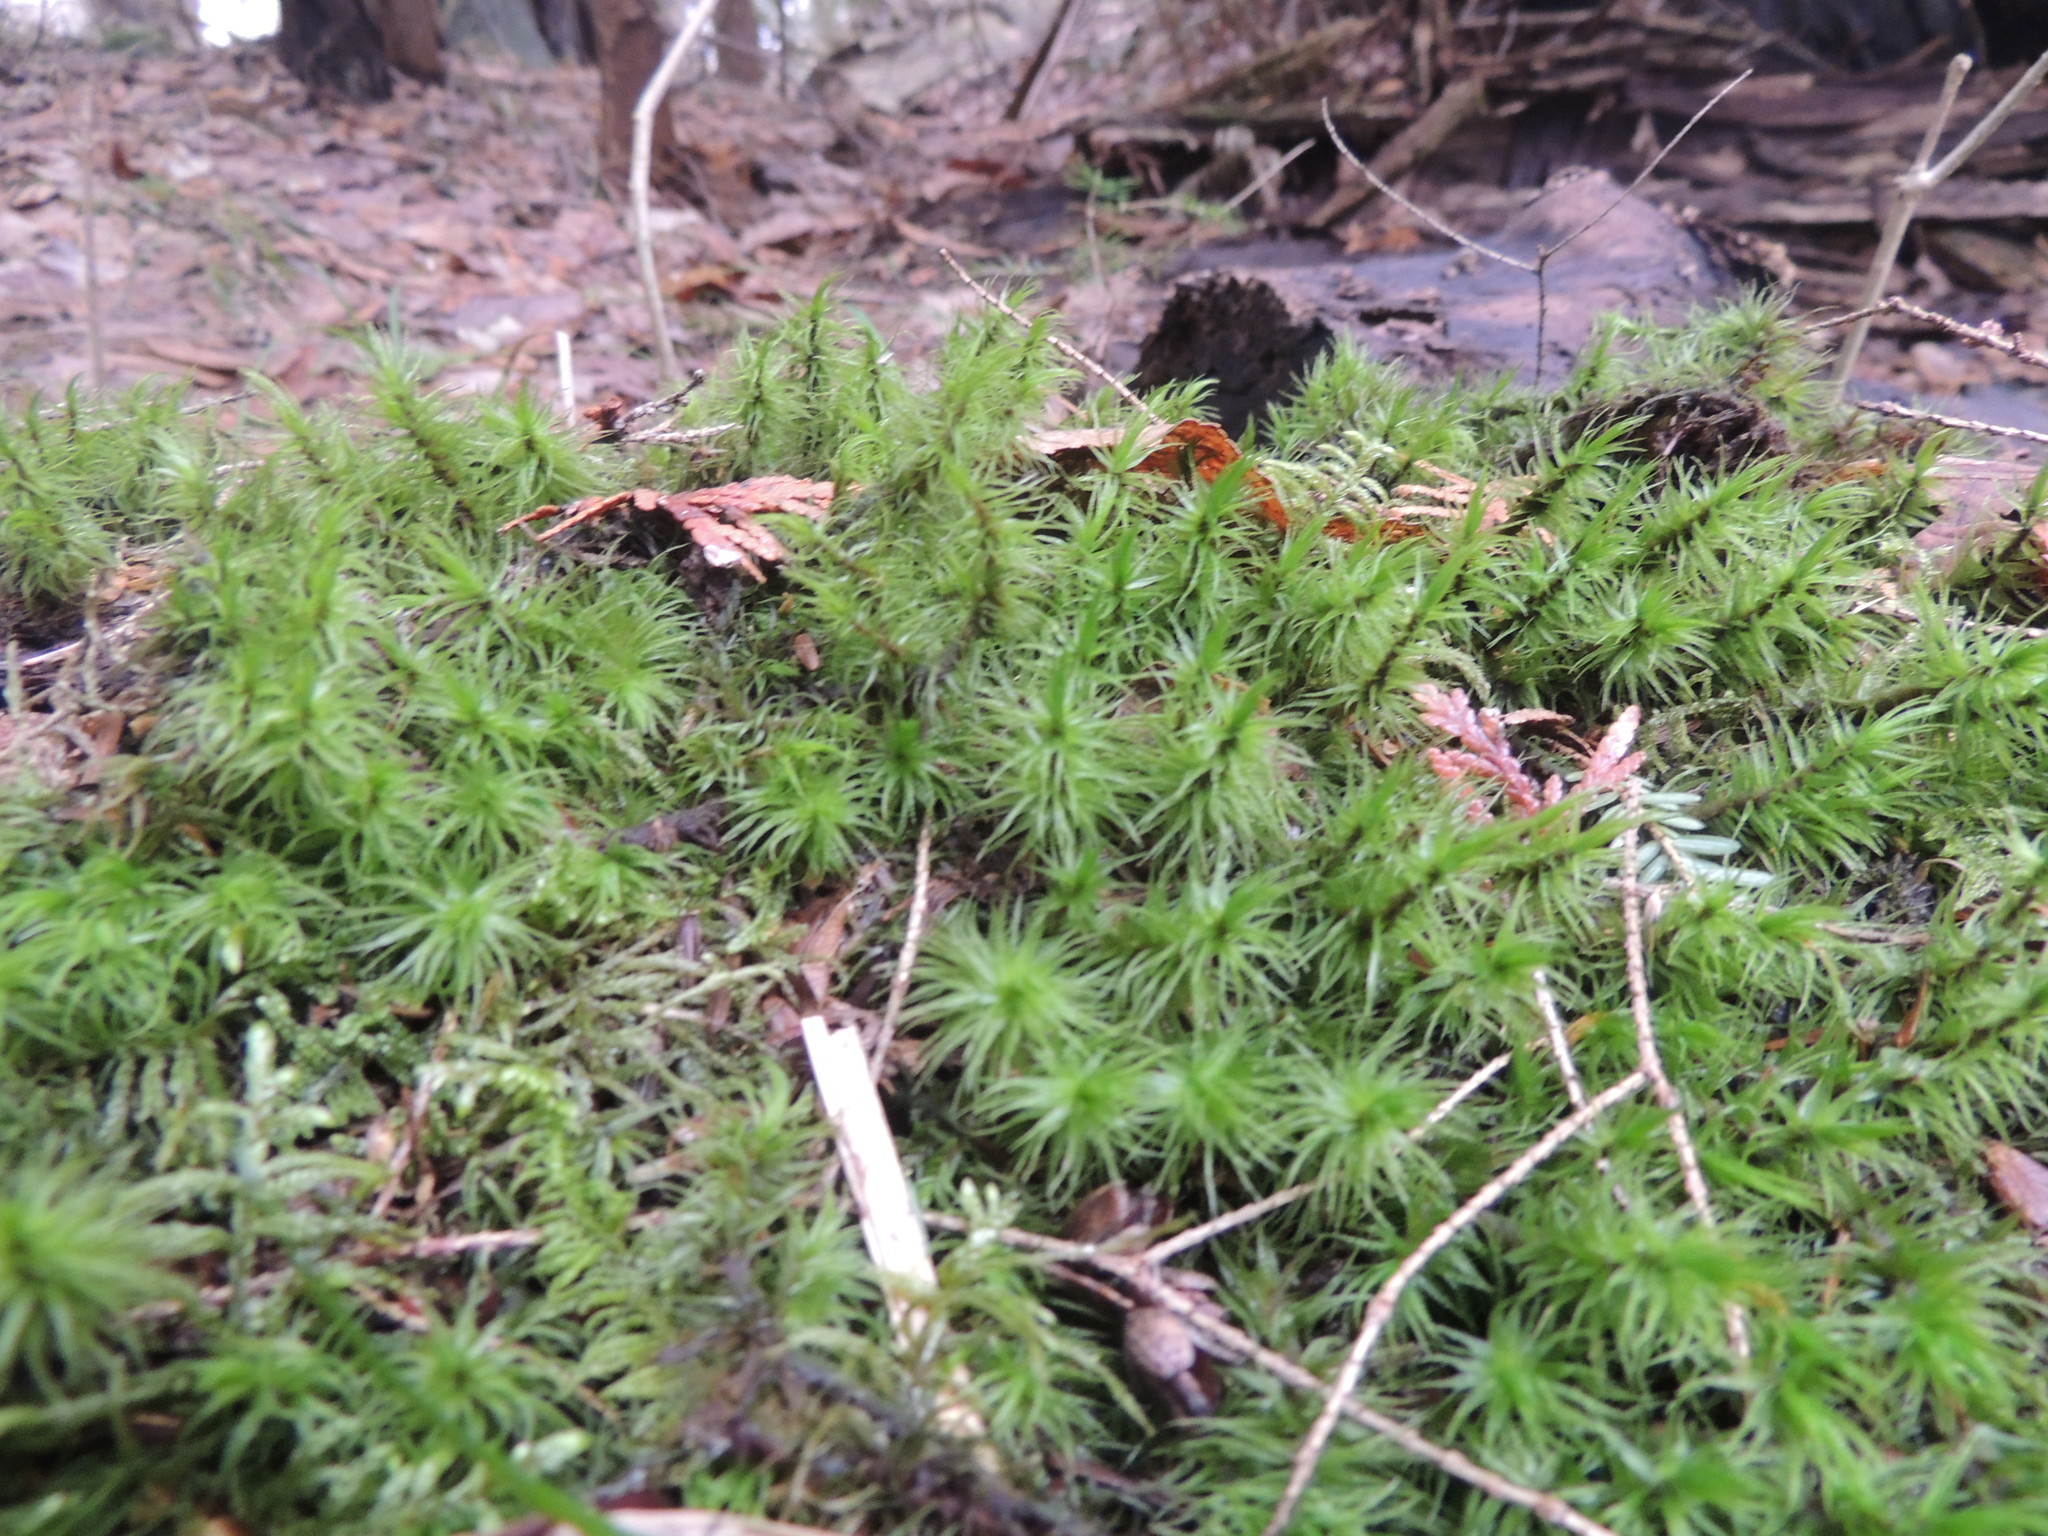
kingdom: Plantae
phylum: Bryophyta
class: Bryopsida
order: Dicranales
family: Dicranaceae
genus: Dicranum
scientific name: Dicranum polysetum
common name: Rugose fork-moss
